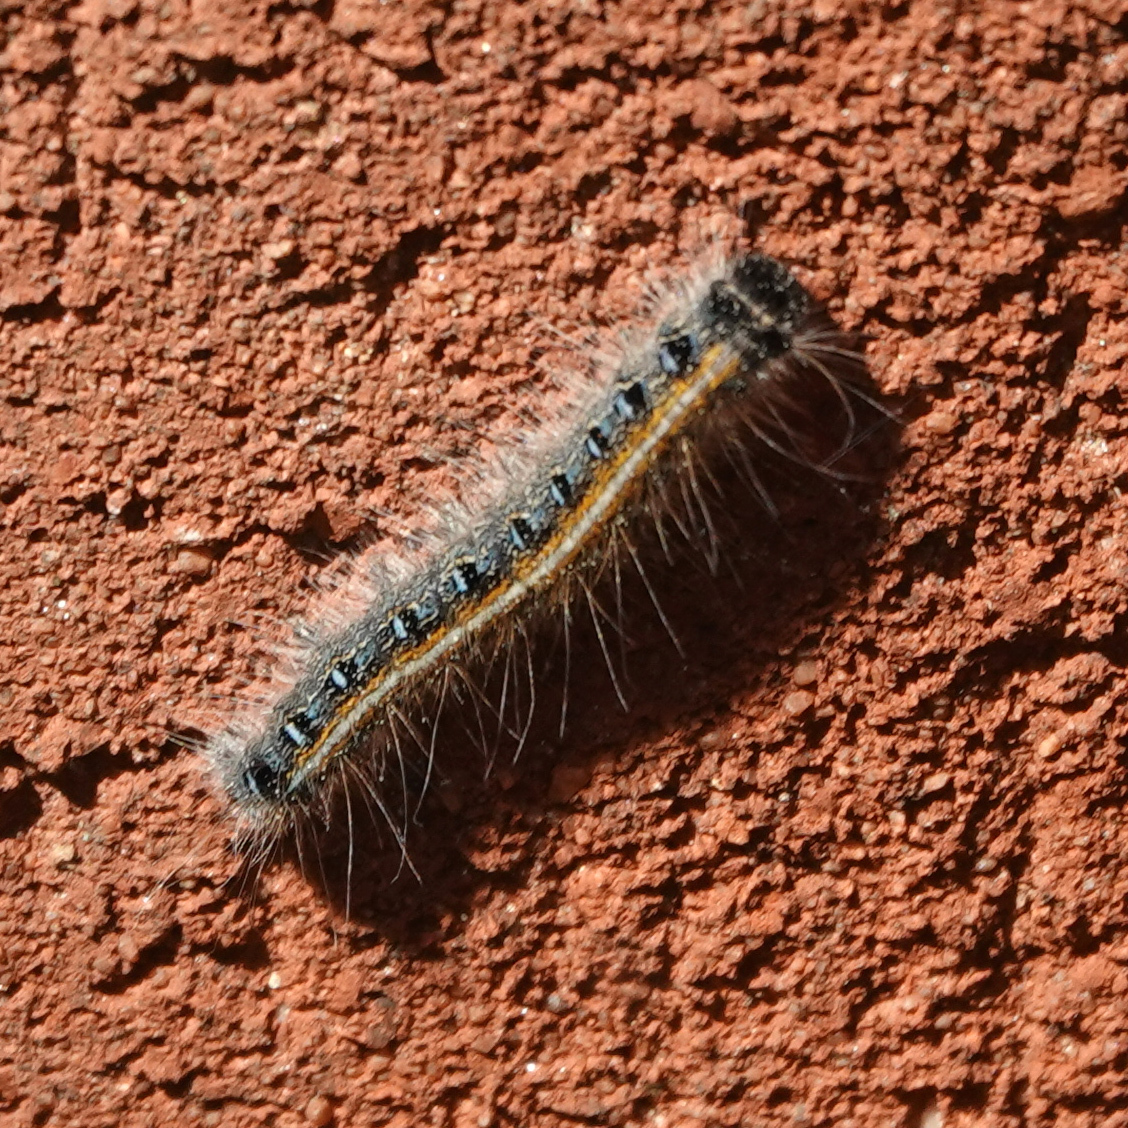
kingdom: Animalia
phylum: Arthropoda
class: Insecta
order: Lepidoptera
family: Lasiocampidae
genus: Malacosoma
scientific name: Malacosoma americana
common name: Eastern tent caterpillar moth
